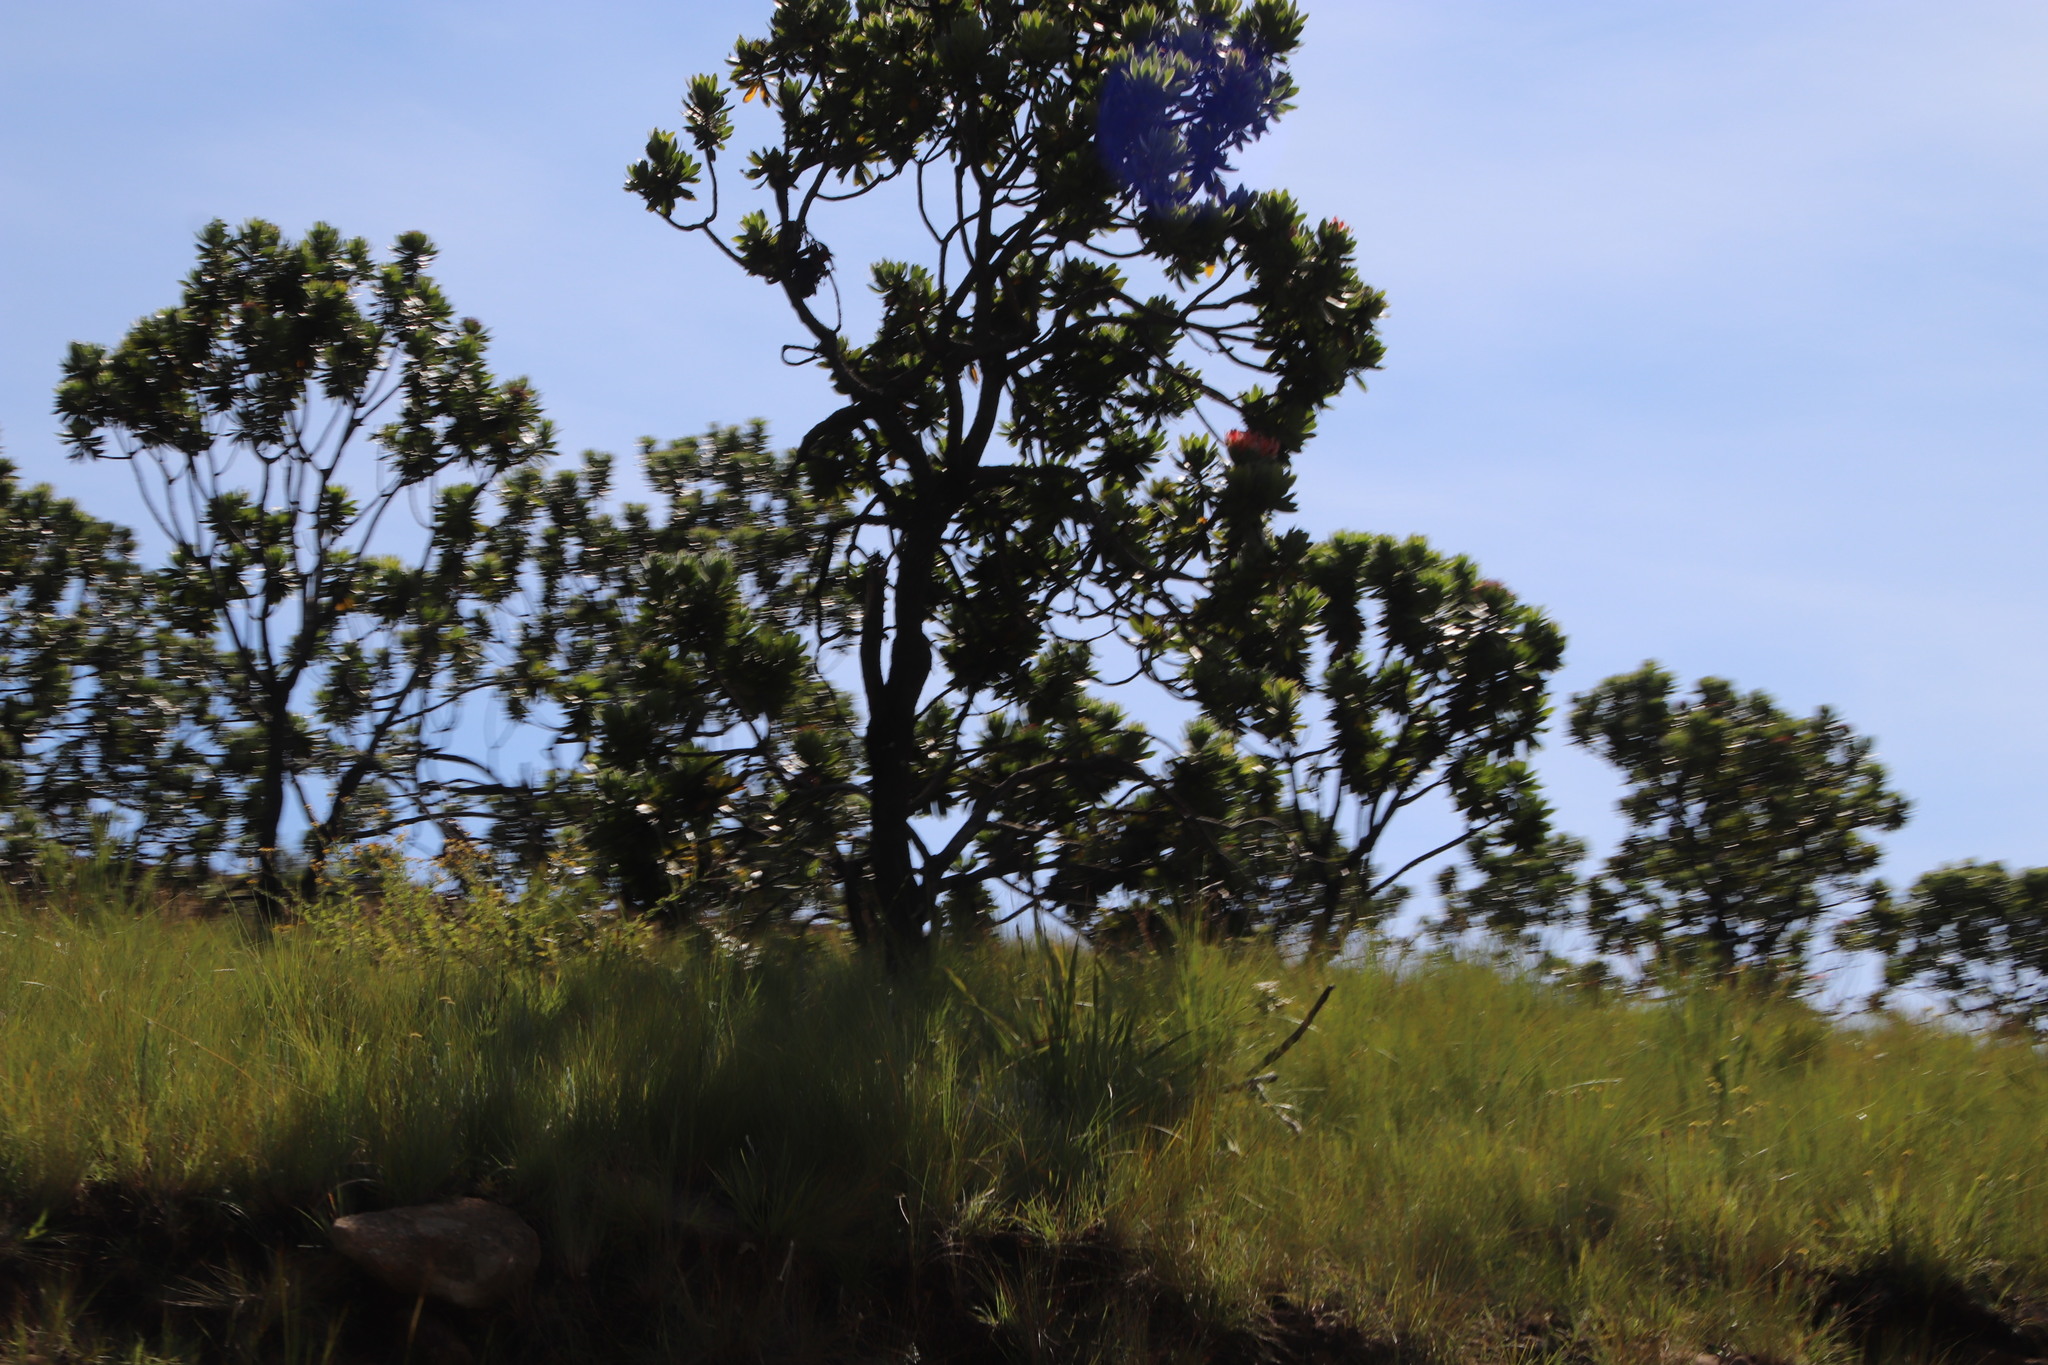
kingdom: Plantae
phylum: Tracheophyta
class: Magnoliopsida
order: Proteales
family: Proteaceae
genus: Protea
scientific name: Protea roupelliae
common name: Silver sugarbush
